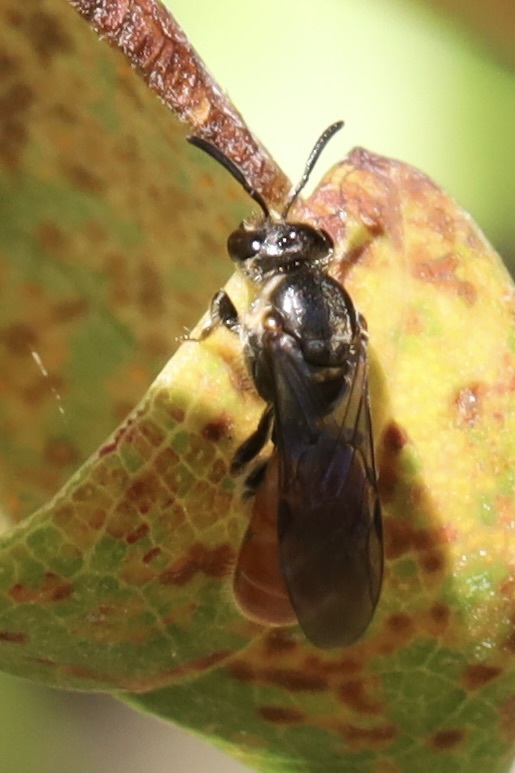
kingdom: Animalia
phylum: Arthropoda
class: Insecta
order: Hymenoptera
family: Halictidae
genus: Lasioglossum
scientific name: Lasioglossum ovaliceps
